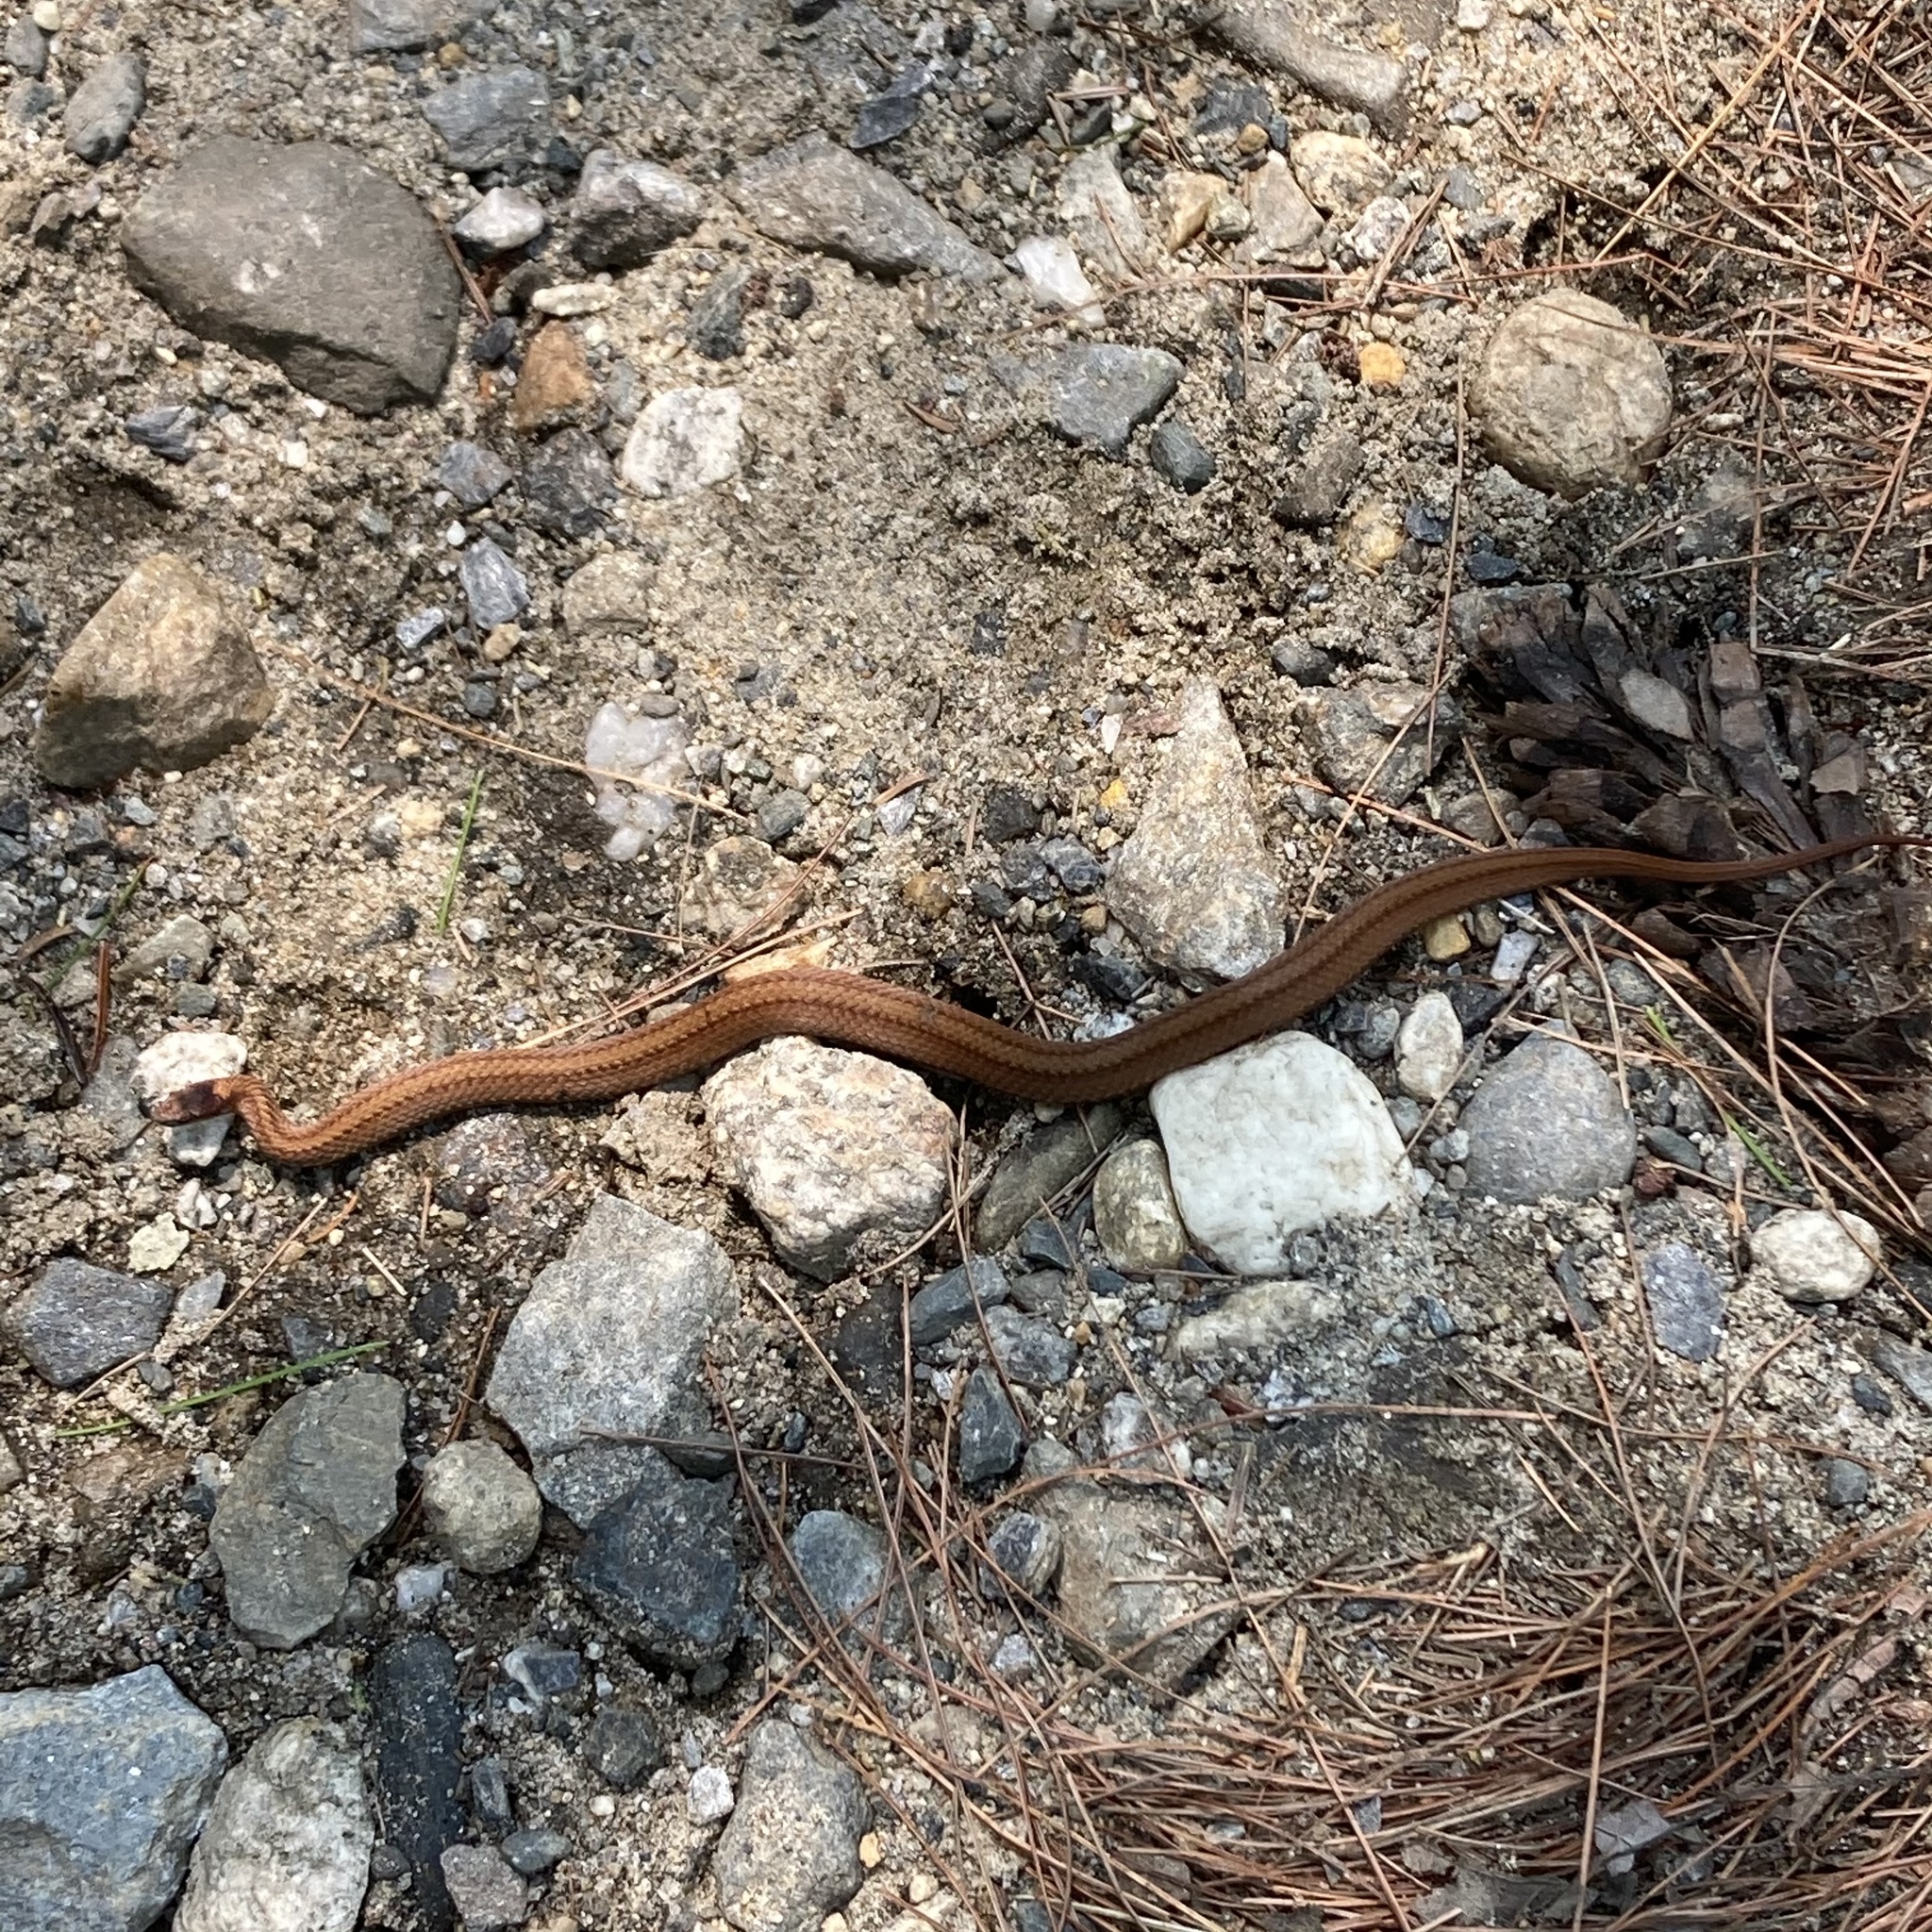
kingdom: Animalia
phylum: Chordata
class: Squamata
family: Colubridae
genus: Storeria
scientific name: Storeria occipitomaculata
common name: Redbelly snake
